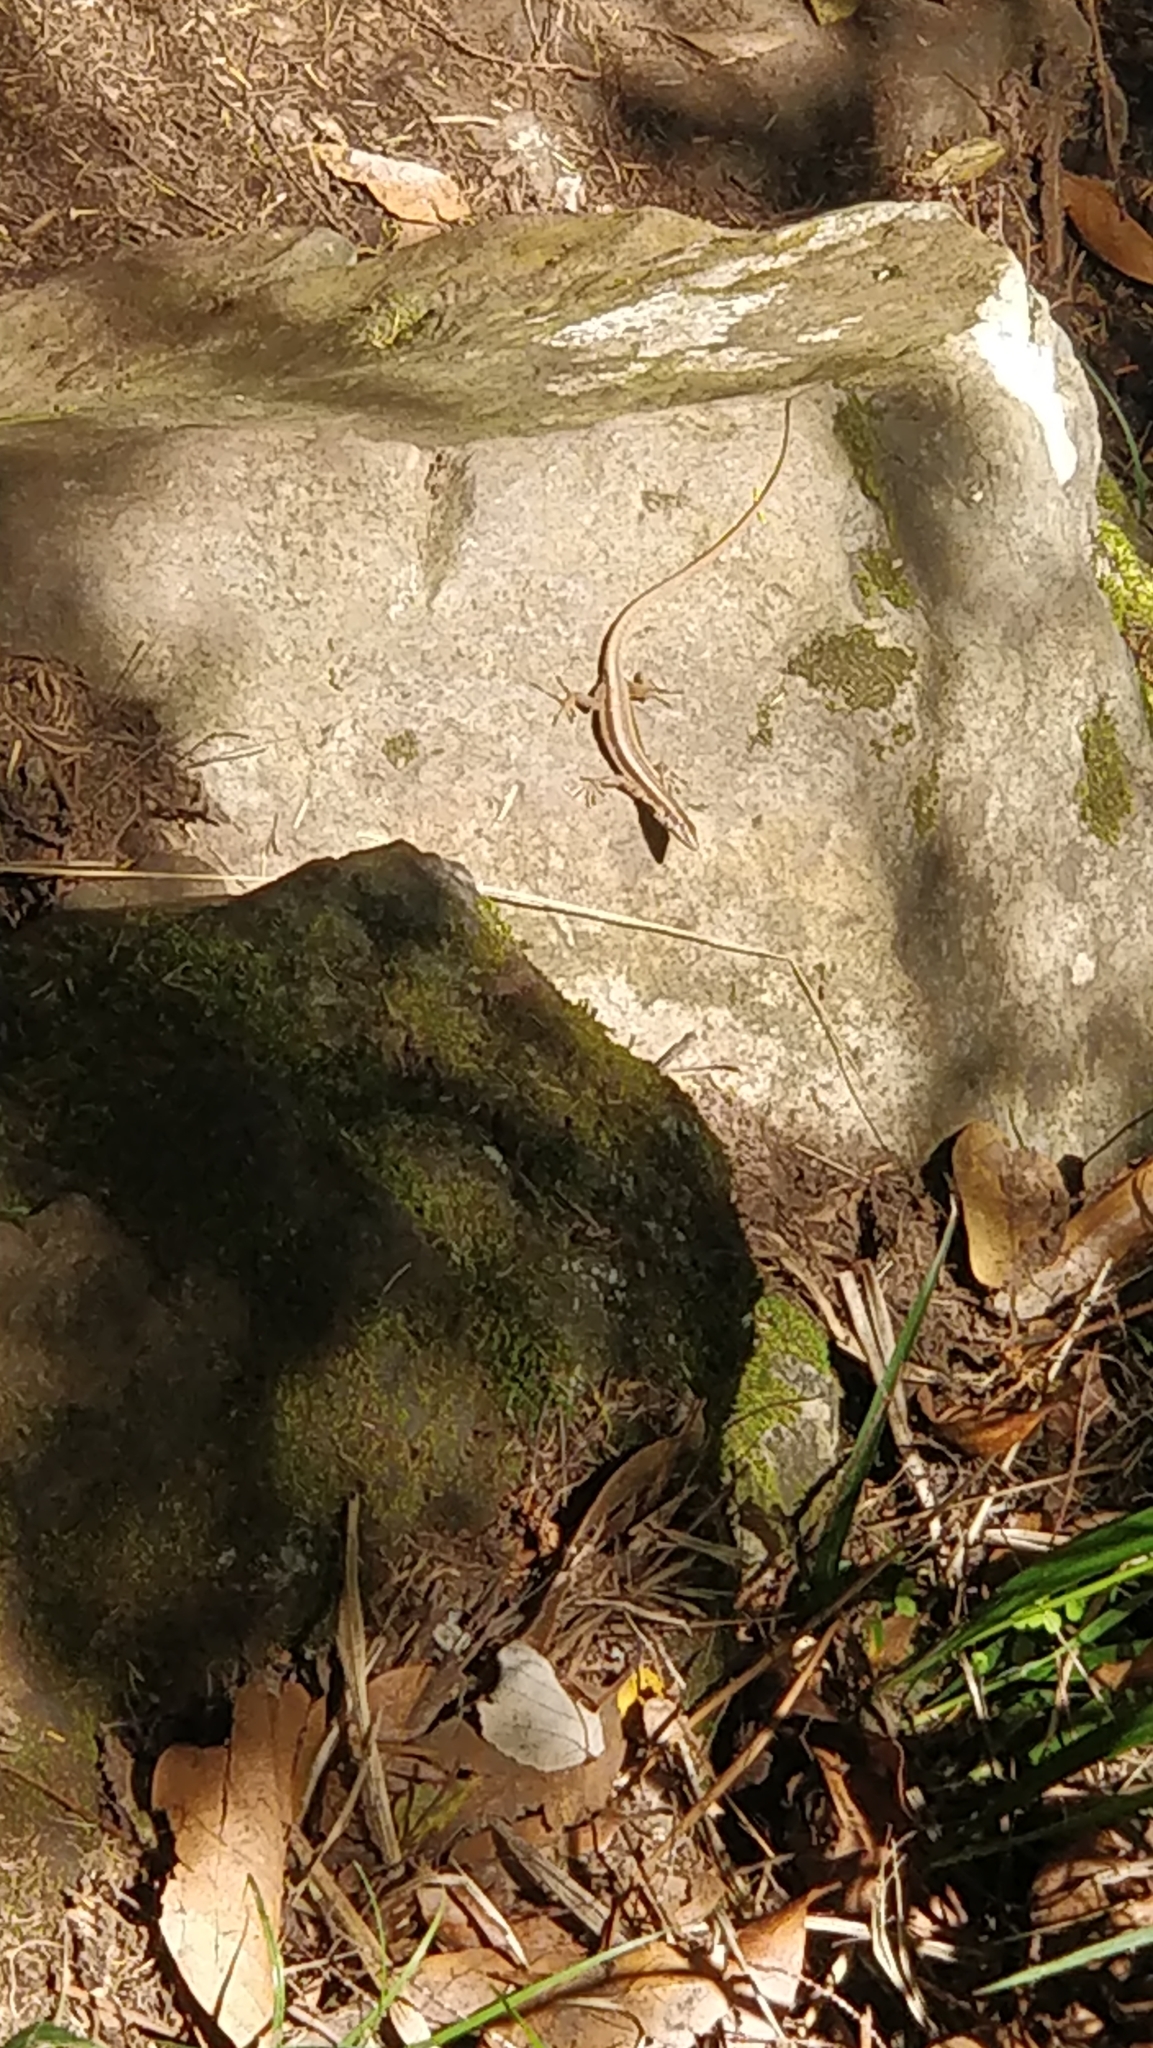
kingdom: Animalia
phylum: Chordata
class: Squamata
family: Lacertidae
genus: Teira
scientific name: Teira dugesii
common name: Madeira lizard
